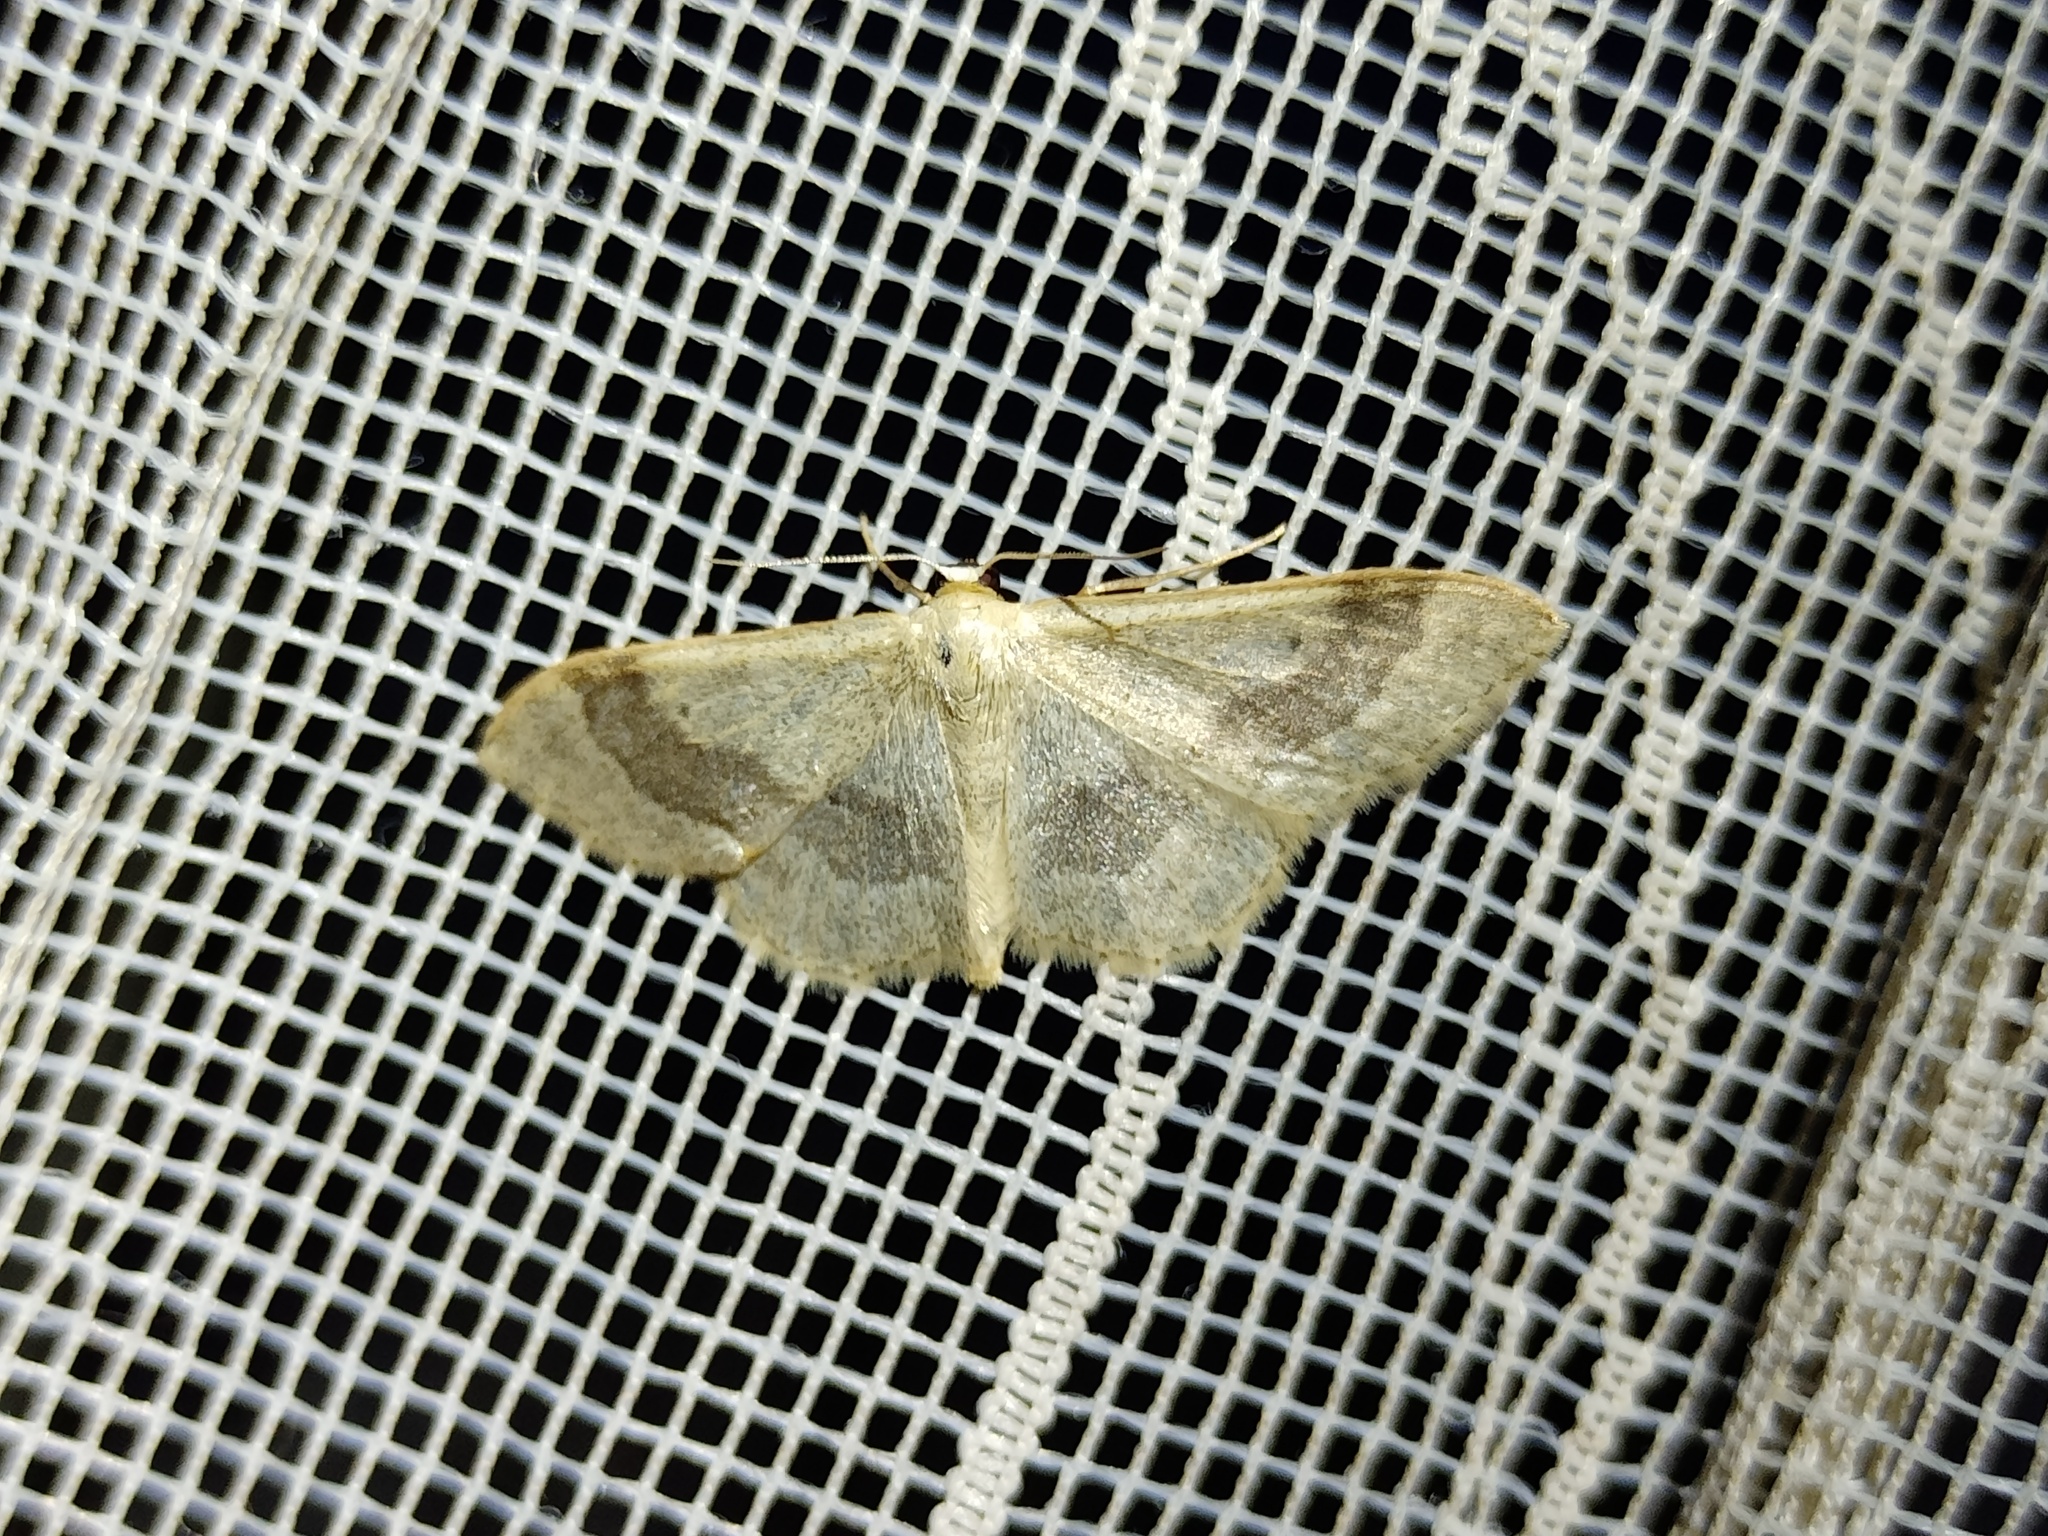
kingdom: Animalia
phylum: Arthropoda
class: Insecta
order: Lepidoptera
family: Geometridae
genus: Idaea
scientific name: Idaea aversata
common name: Riband wave
